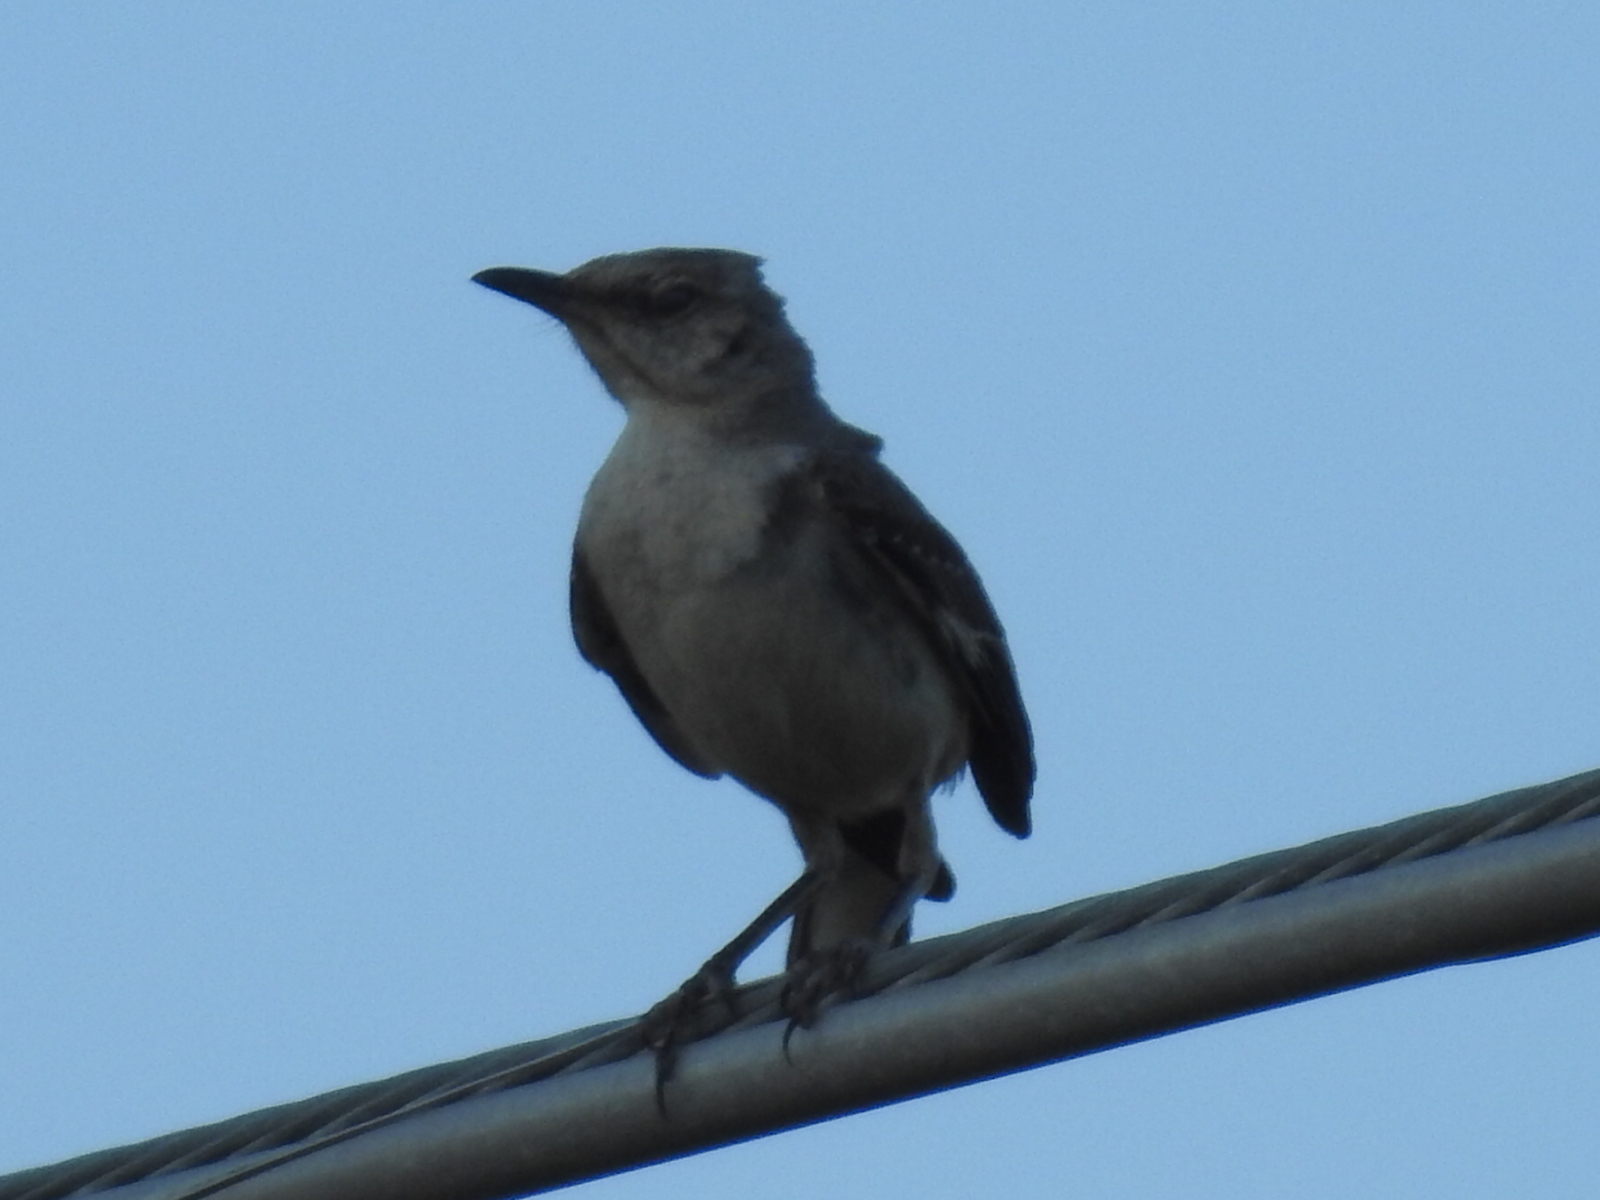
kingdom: Animalia
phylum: Chordata
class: Aves
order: Passeriformes
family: Mimidae
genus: Mimus
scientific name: Mimus polyglottos
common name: Northern mockingbird
